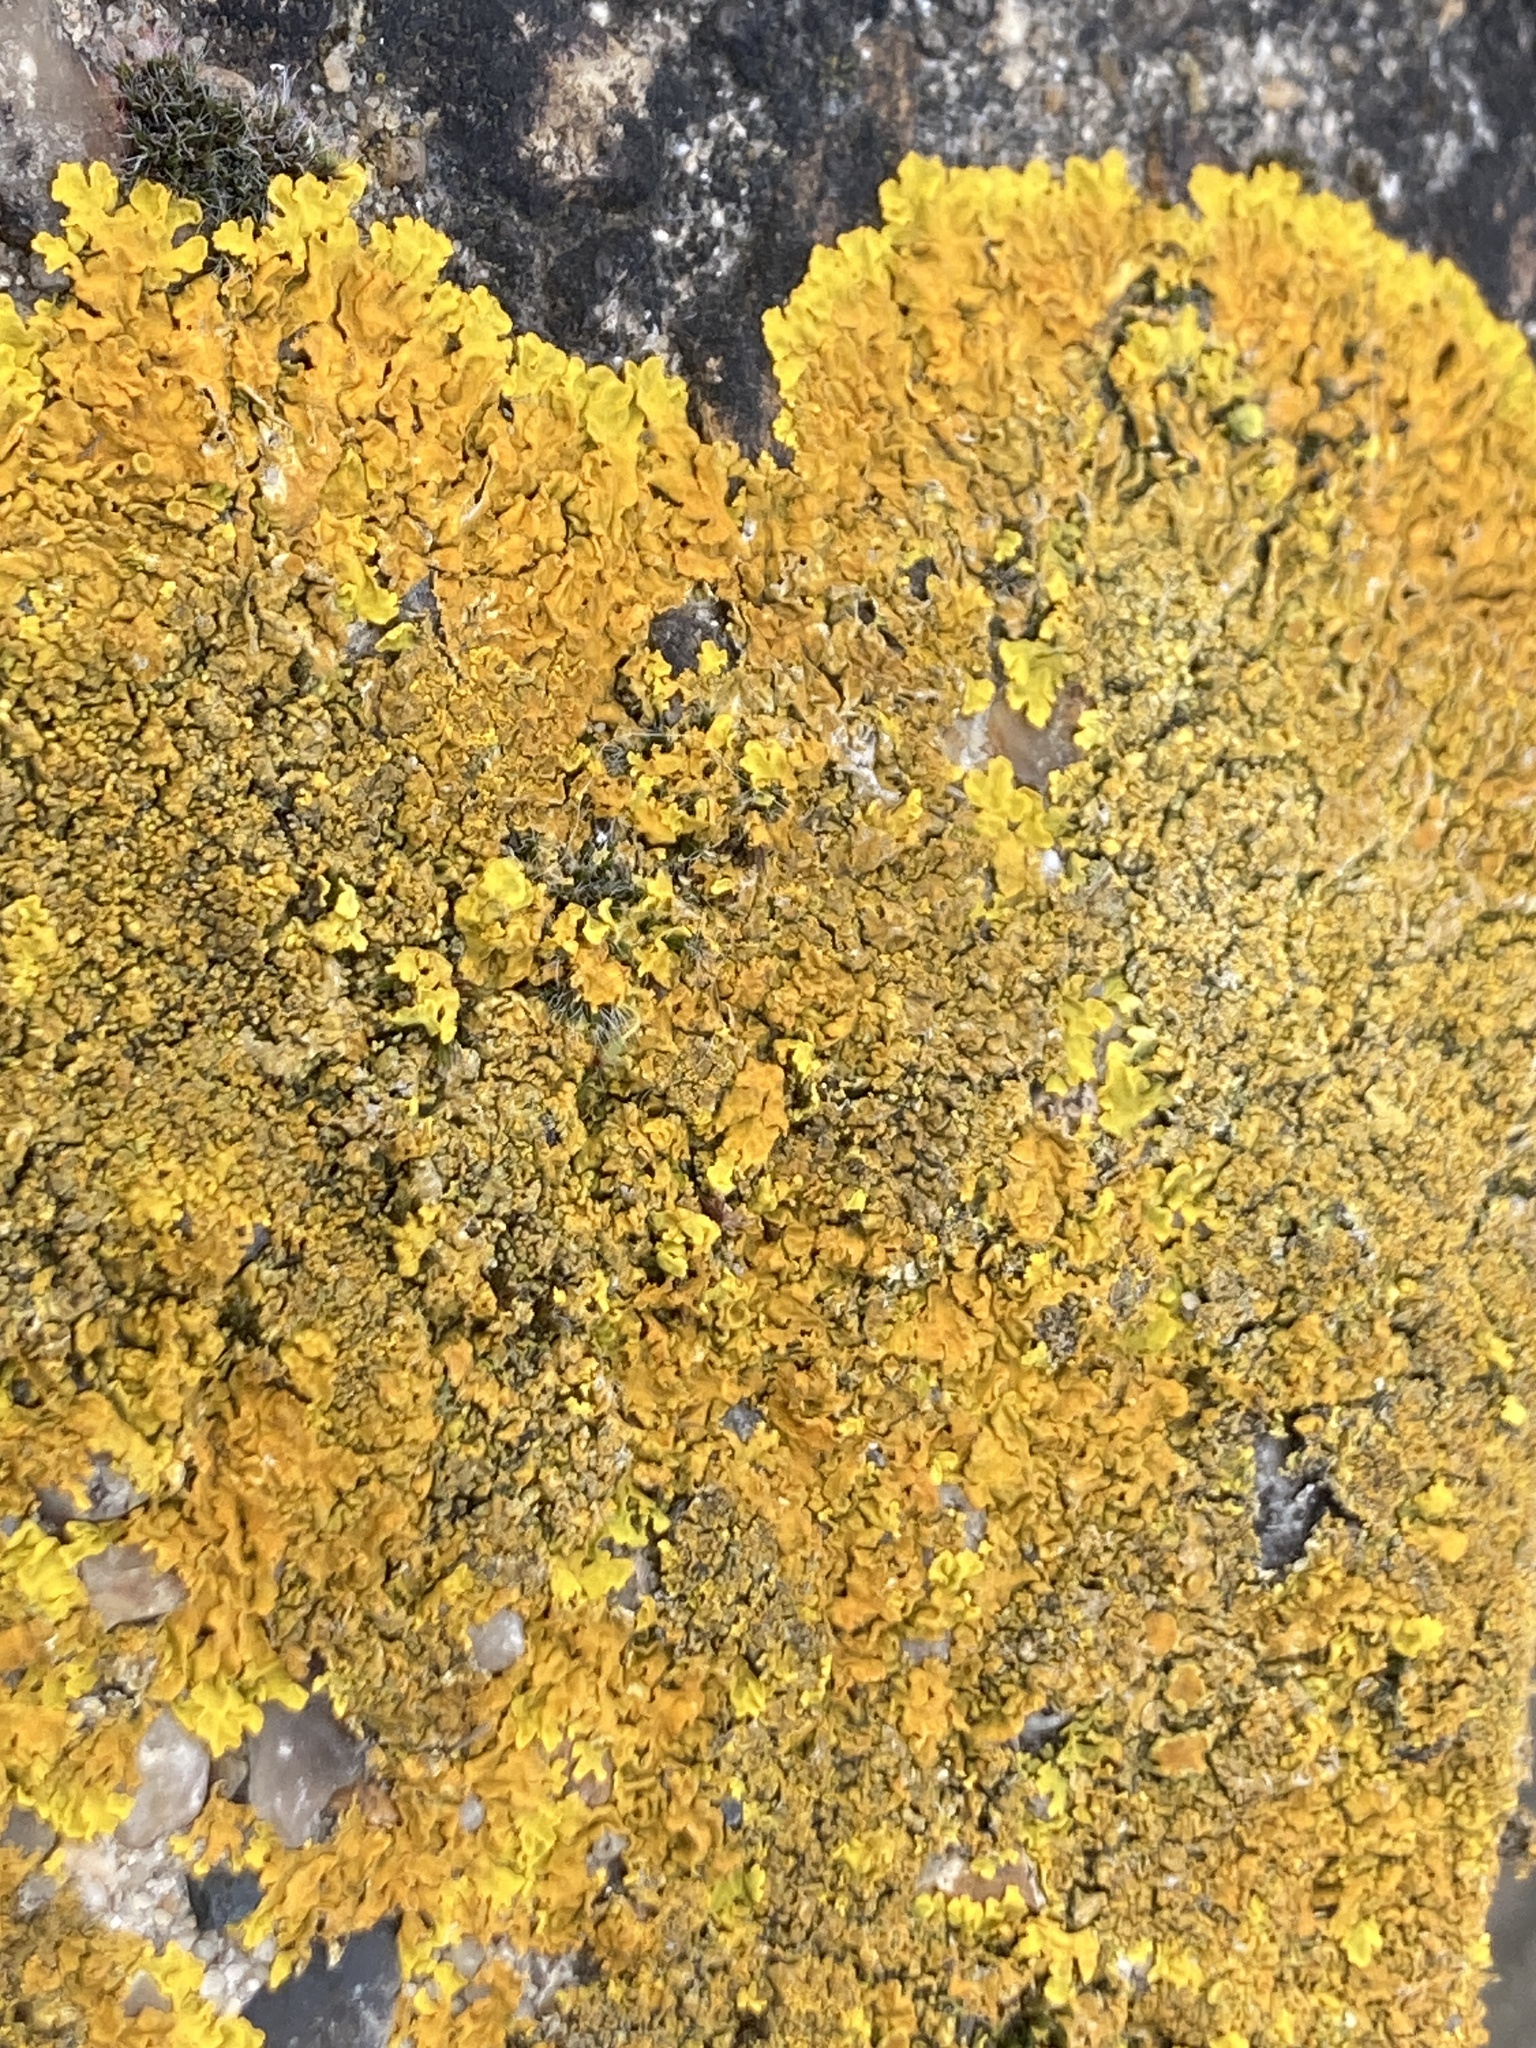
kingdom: Fungi
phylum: Ascomycota
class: Lecanoromycetes
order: Teloschistales
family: Teloschistaceae
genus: Xanthoria
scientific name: Xanthoria calcicola
